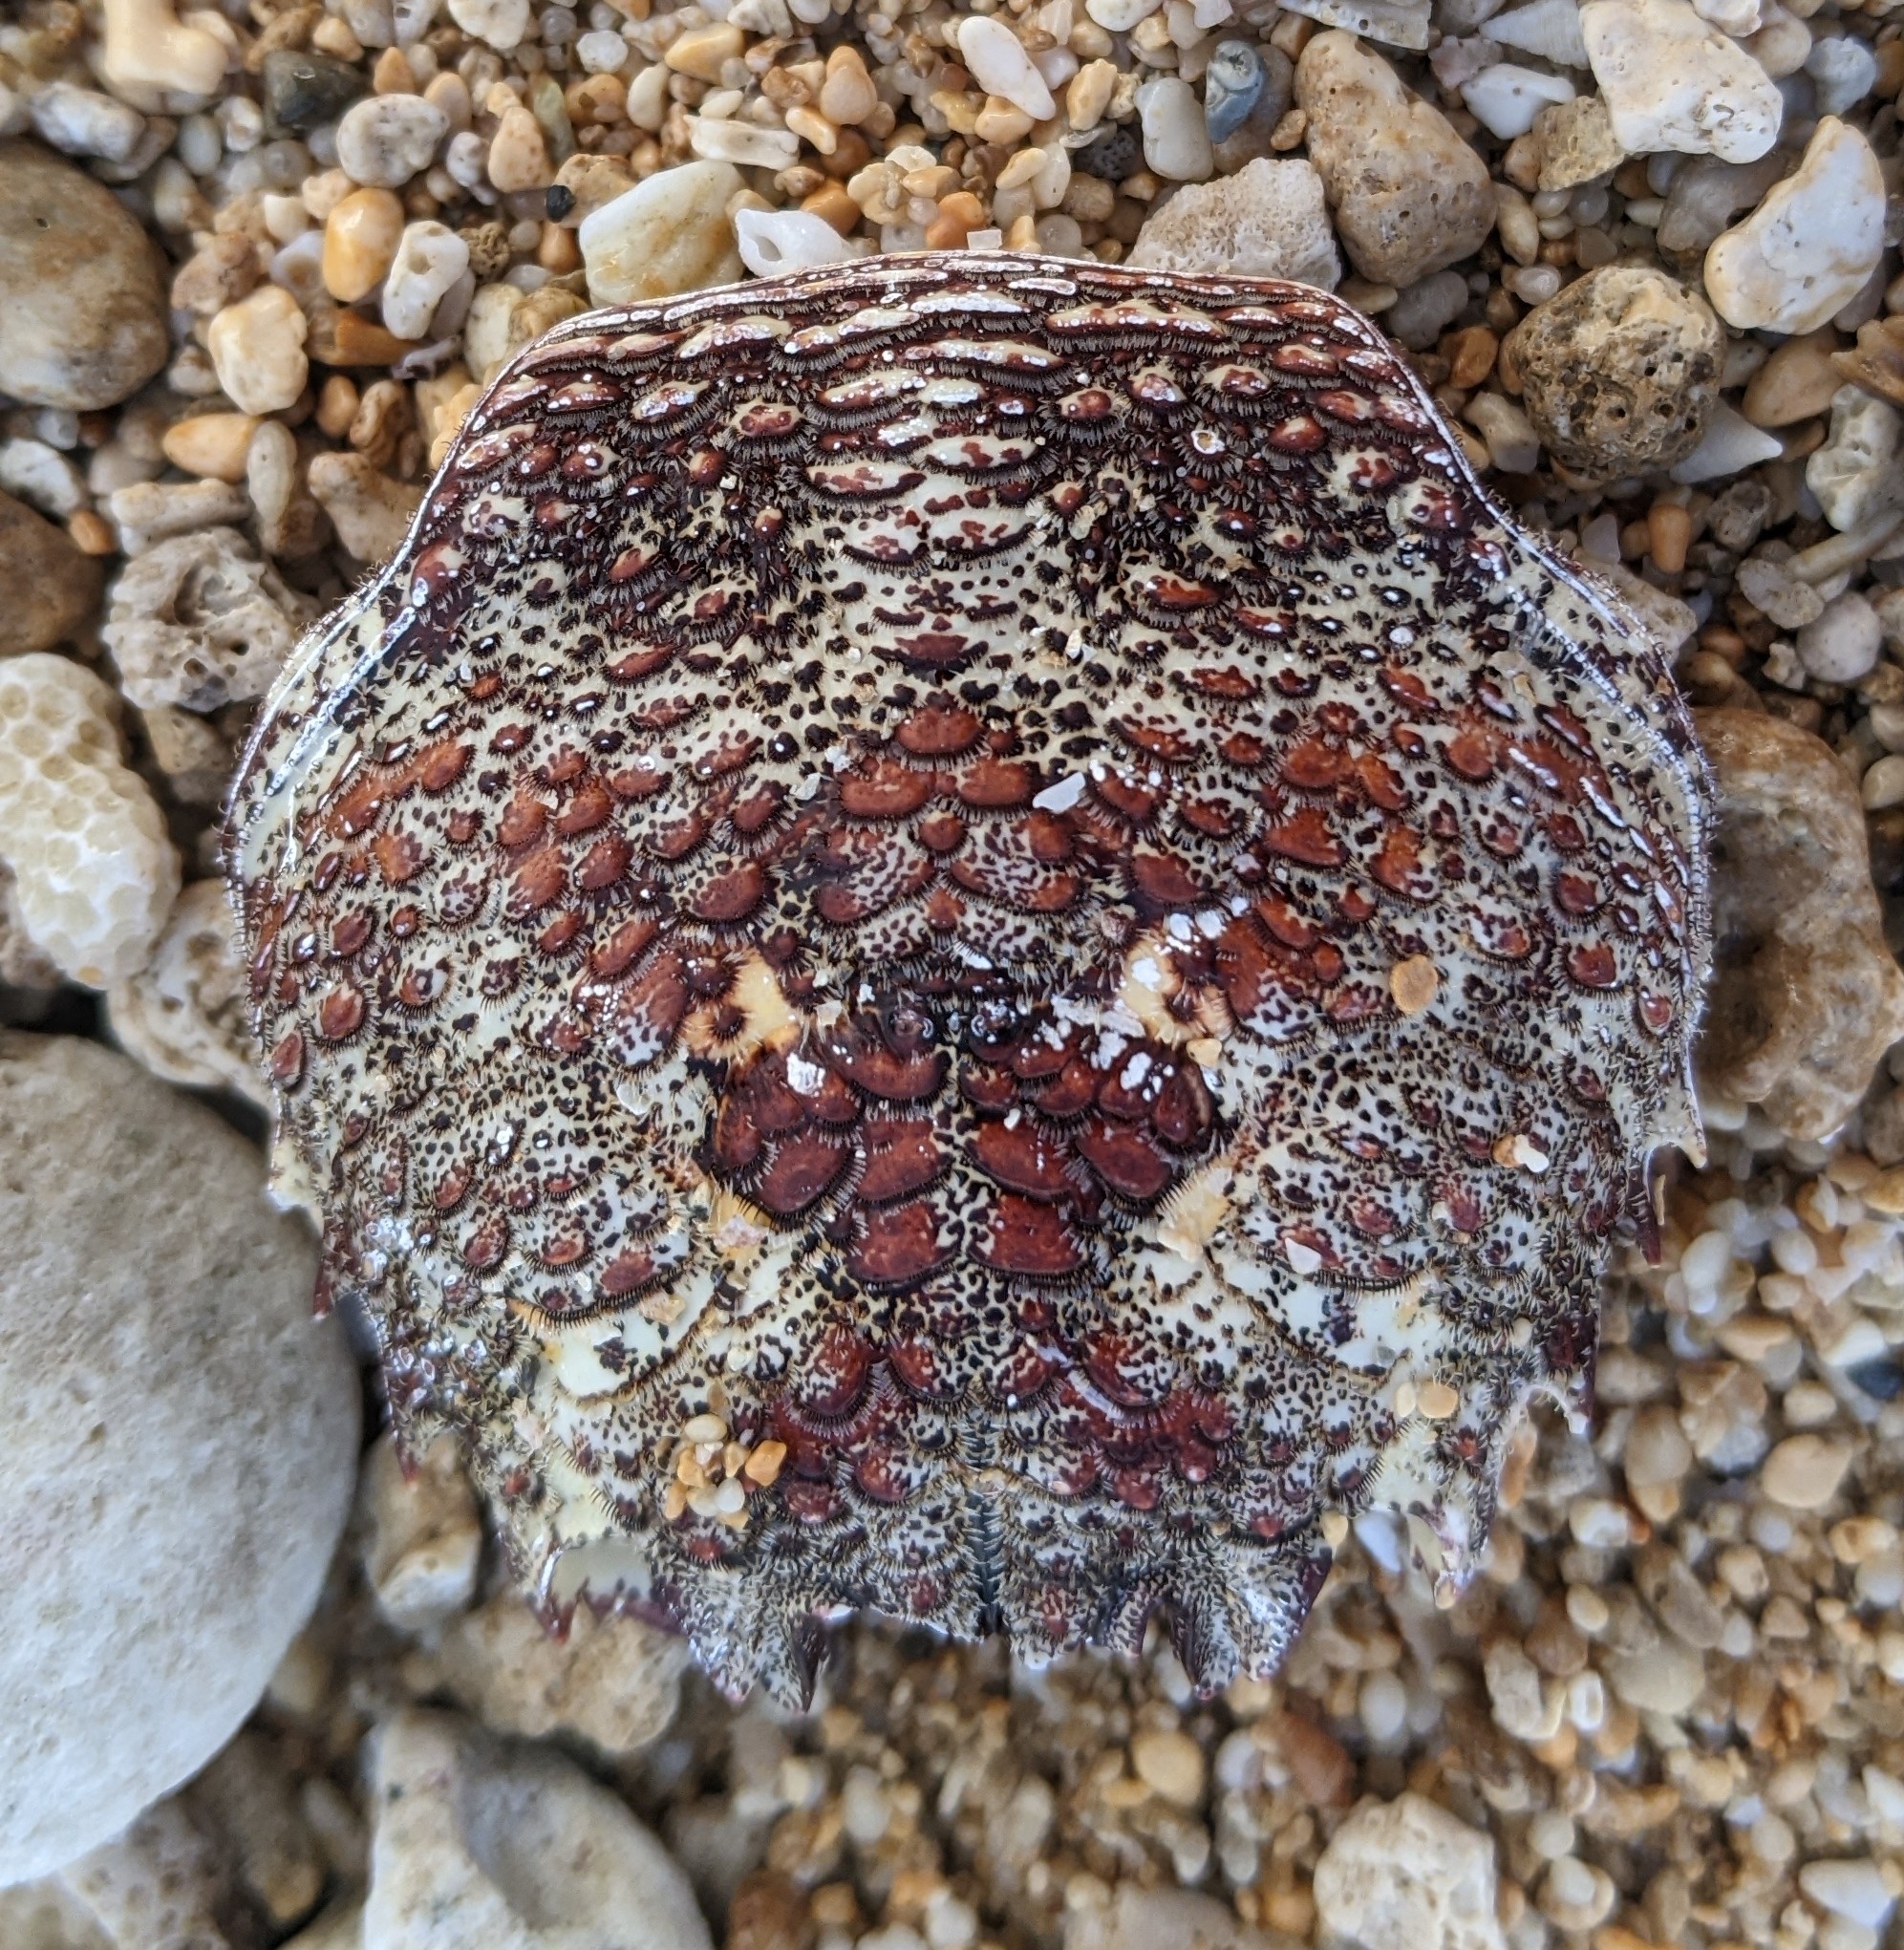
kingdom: Animalia
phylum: Arthropoda
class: Malacostraca
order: Decapoda
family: Plagusiidae
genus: Plagusia
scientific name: Plagusia squamosa
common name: Scaly rock crab
